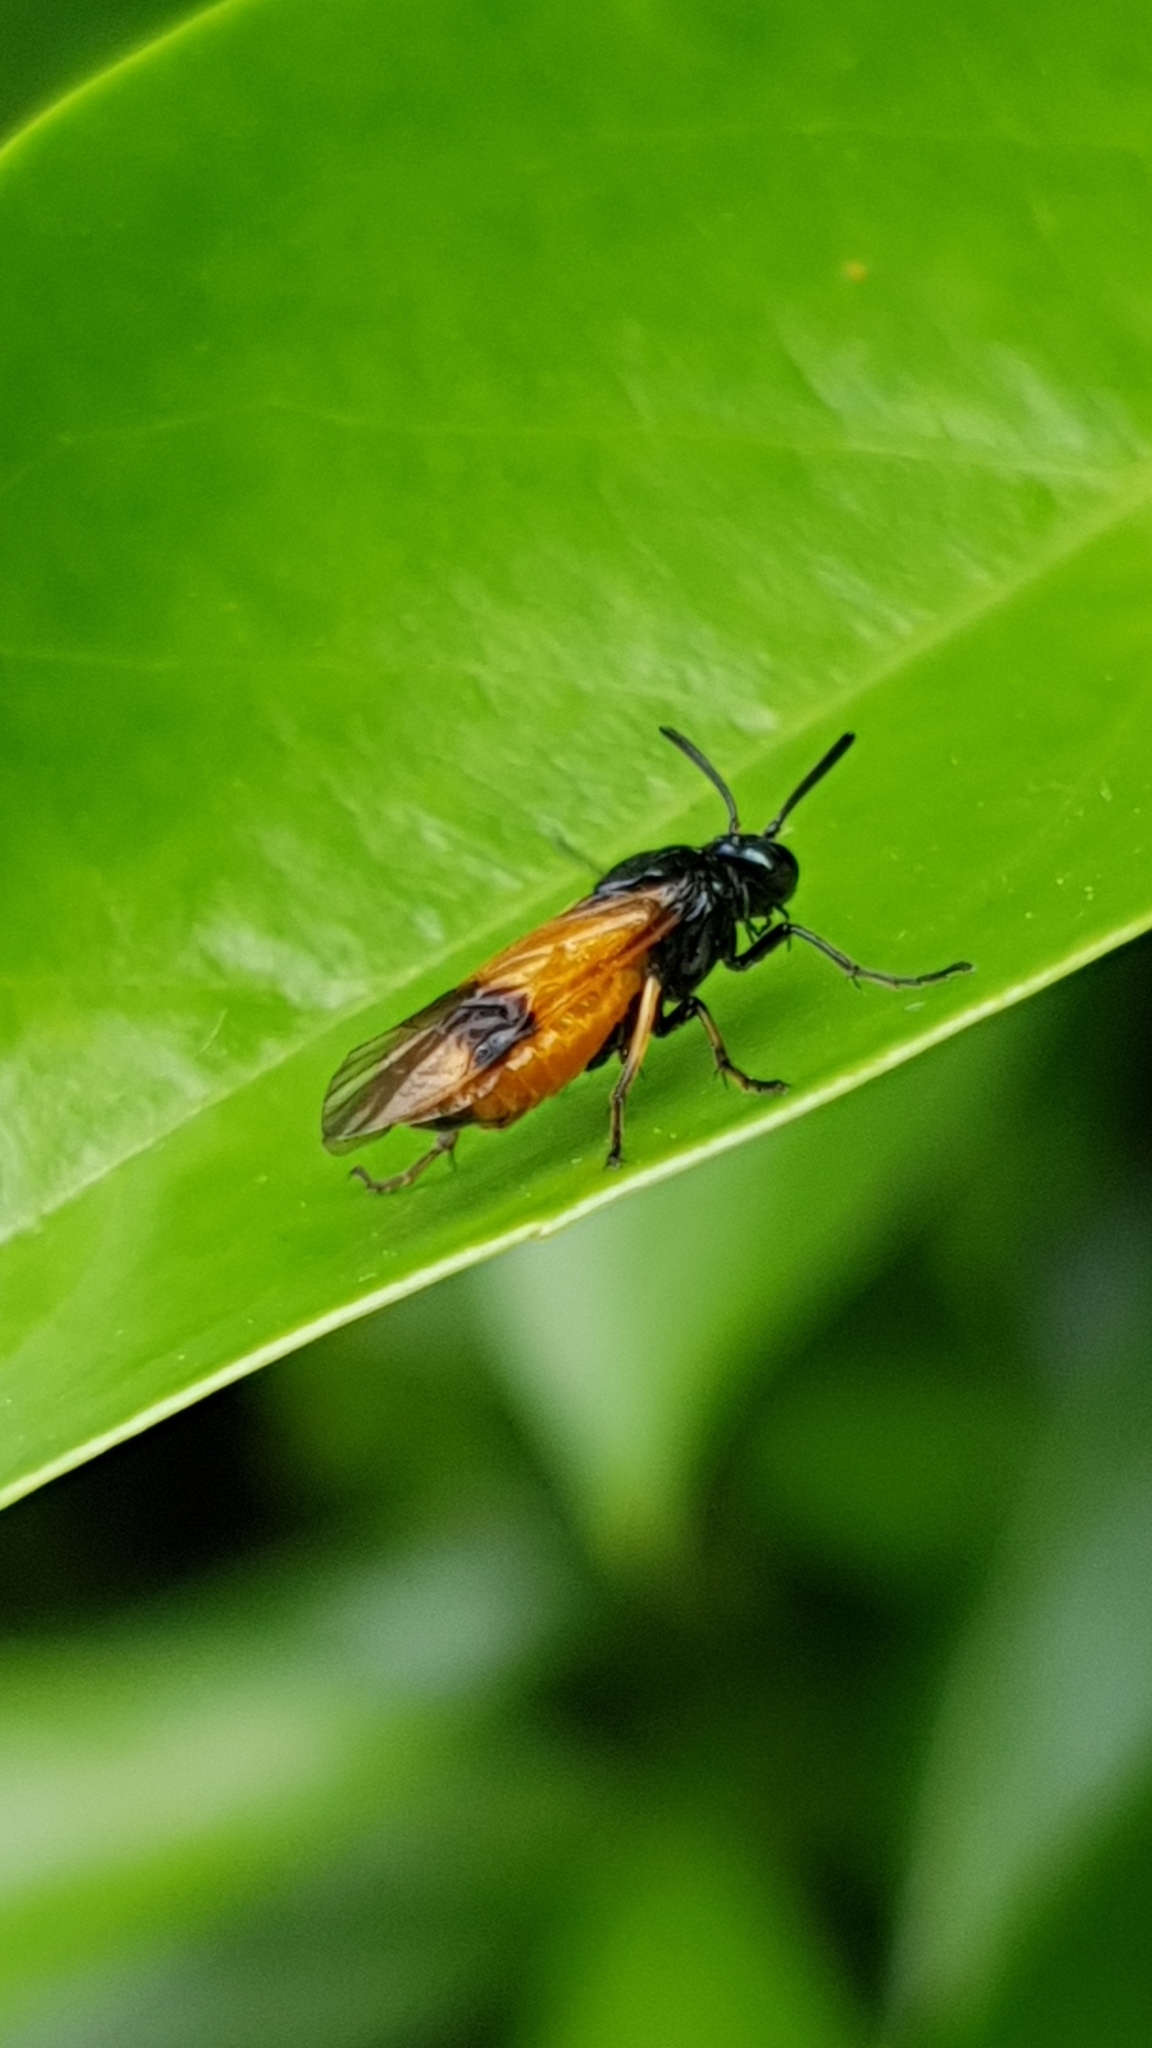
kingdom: Animalia
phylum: Arthropoda
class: Insecta
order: Hymenoptera
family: Argidae
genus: Arge
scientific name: Arge cyanocrocea
